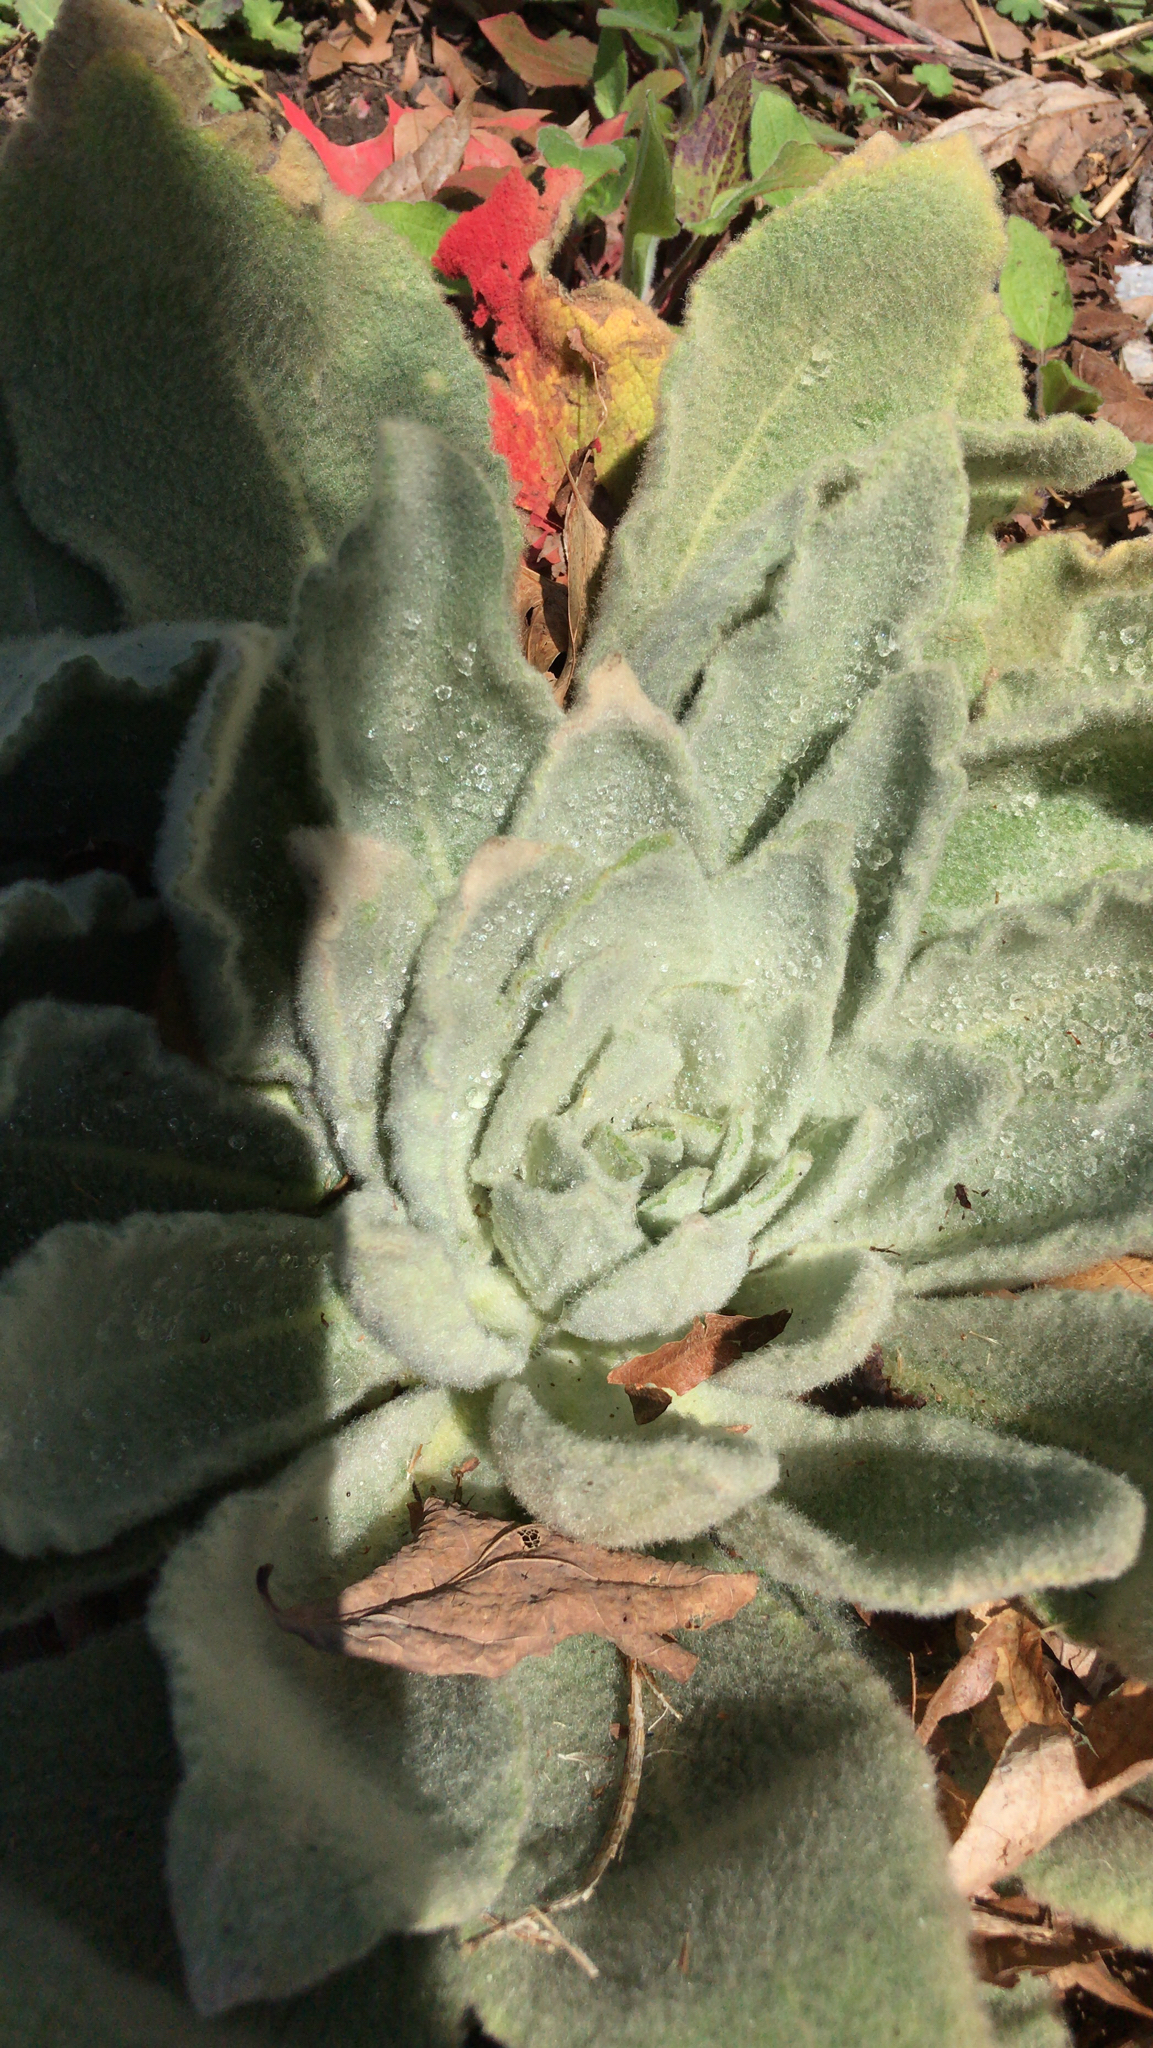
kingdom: Plantae
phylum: Tracheophyta
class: Magnoliopsida
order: Lamiales
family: Scrophulariaceae
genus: Verbascum
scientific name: Verbascum thapsus
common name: Common mullein
